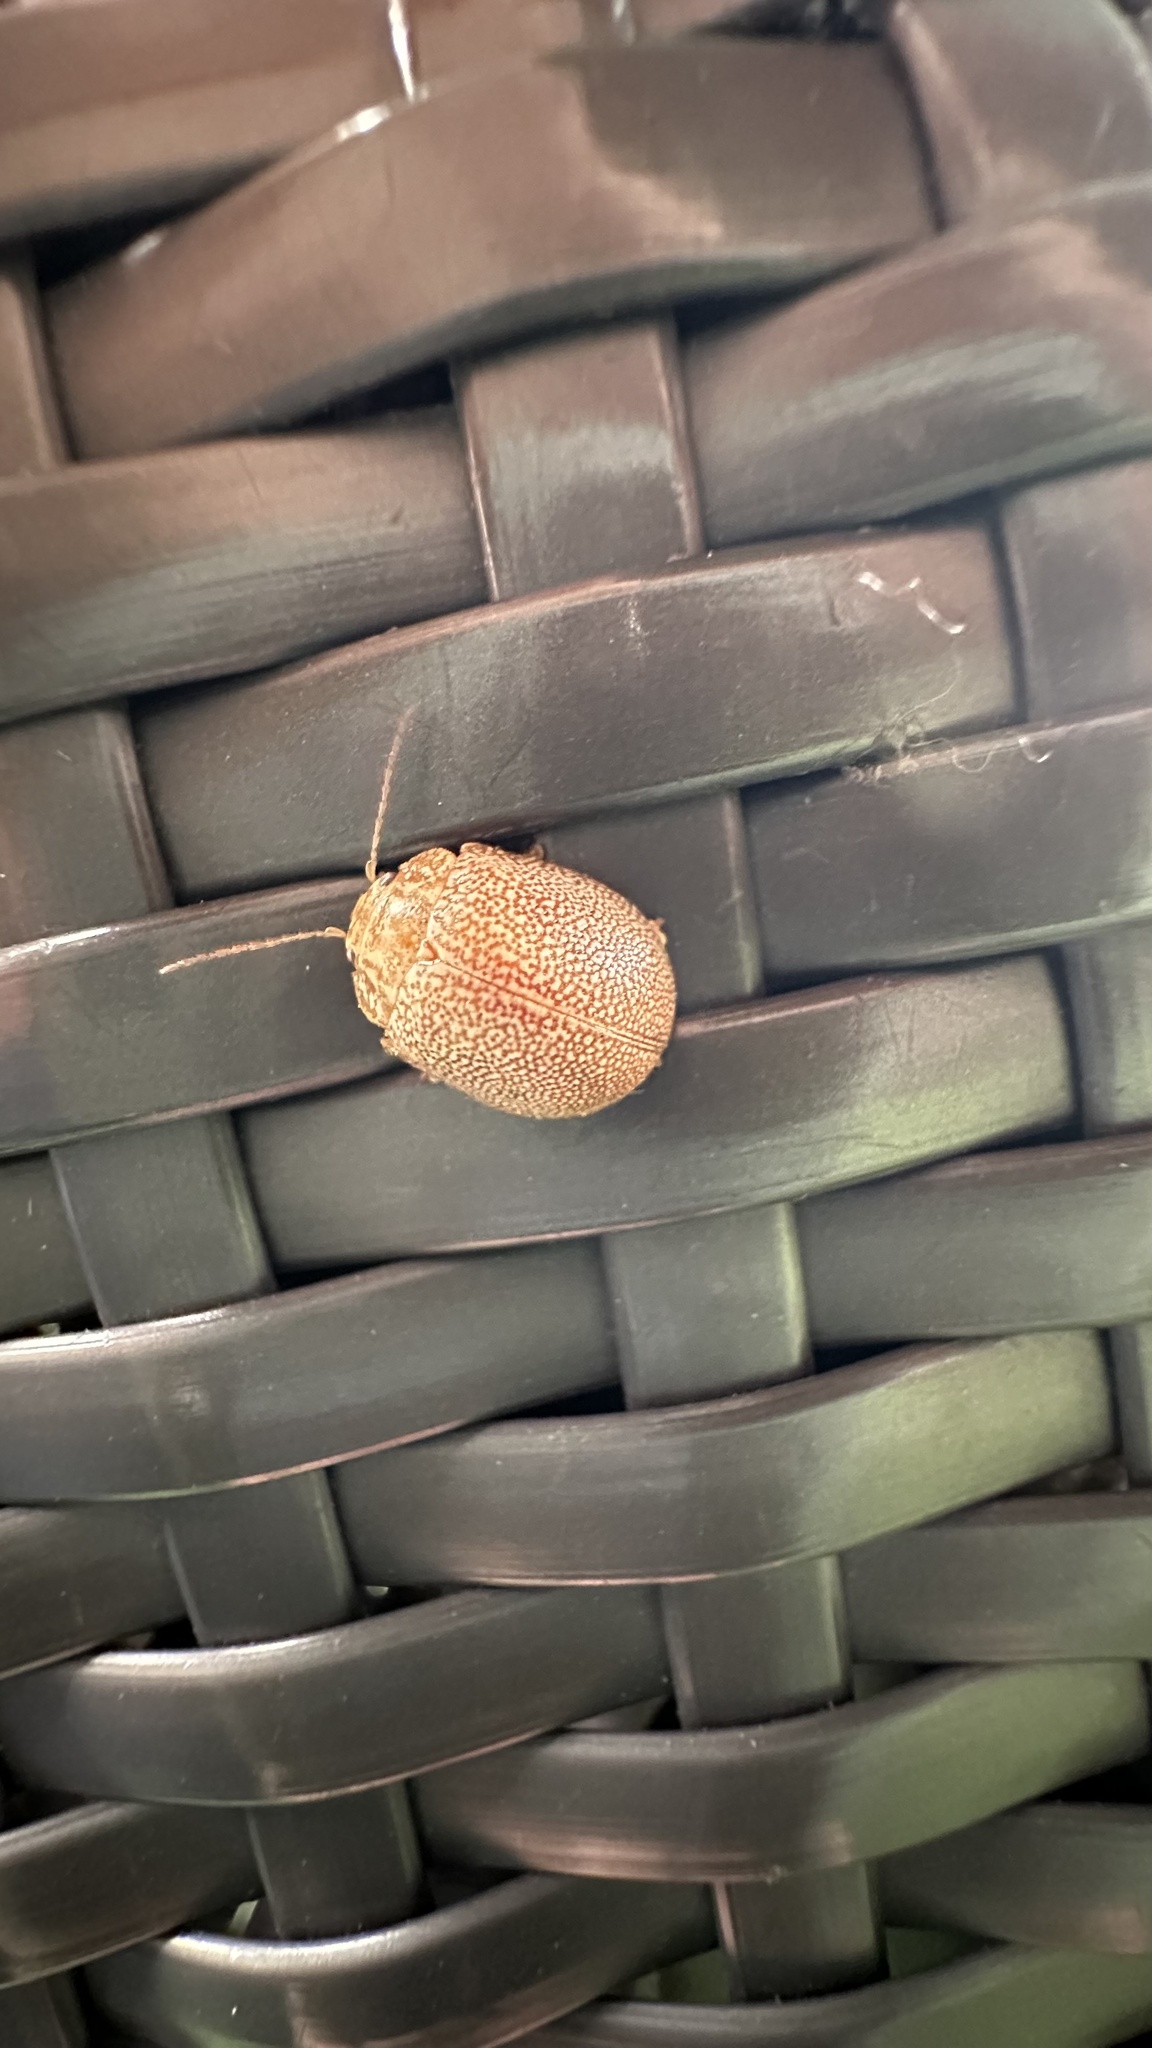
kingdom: Animalia
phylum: Arthropoda
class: Insecta
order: Coleoptera
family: Chrysomelidae
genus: Paropsis
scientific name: Paropsis
